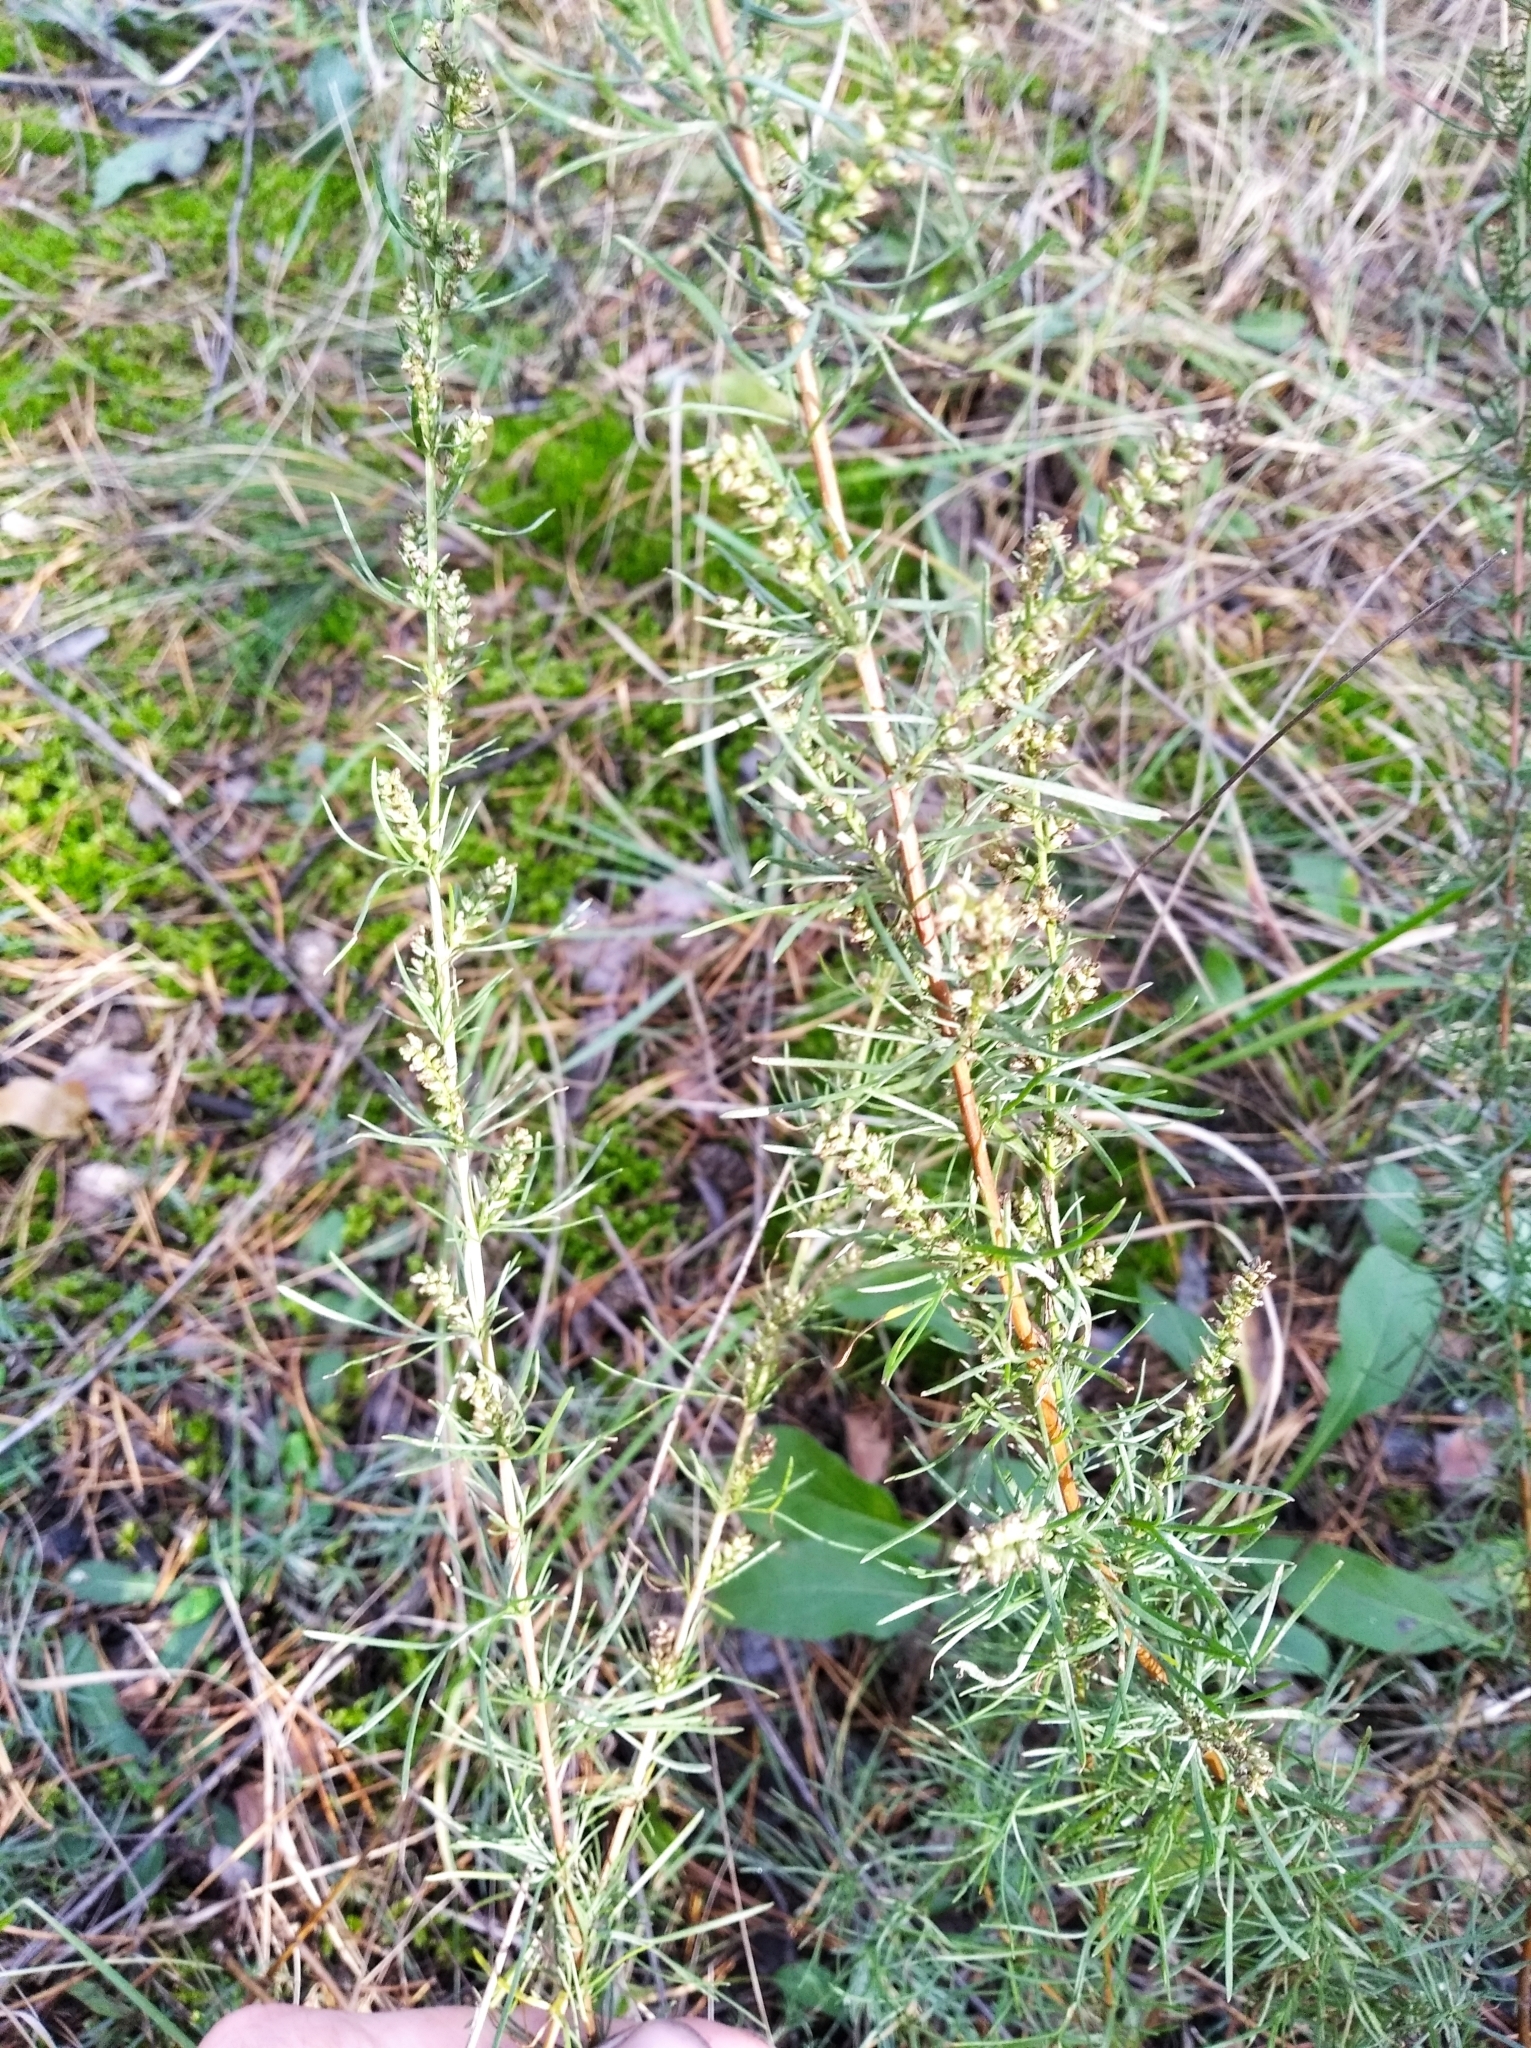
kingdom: Plantae
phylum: Tracheophyta
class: Magnoliopsida
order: Asterales
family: Asteraceae
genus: Artemisia
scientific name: Artemisia marschalliana
